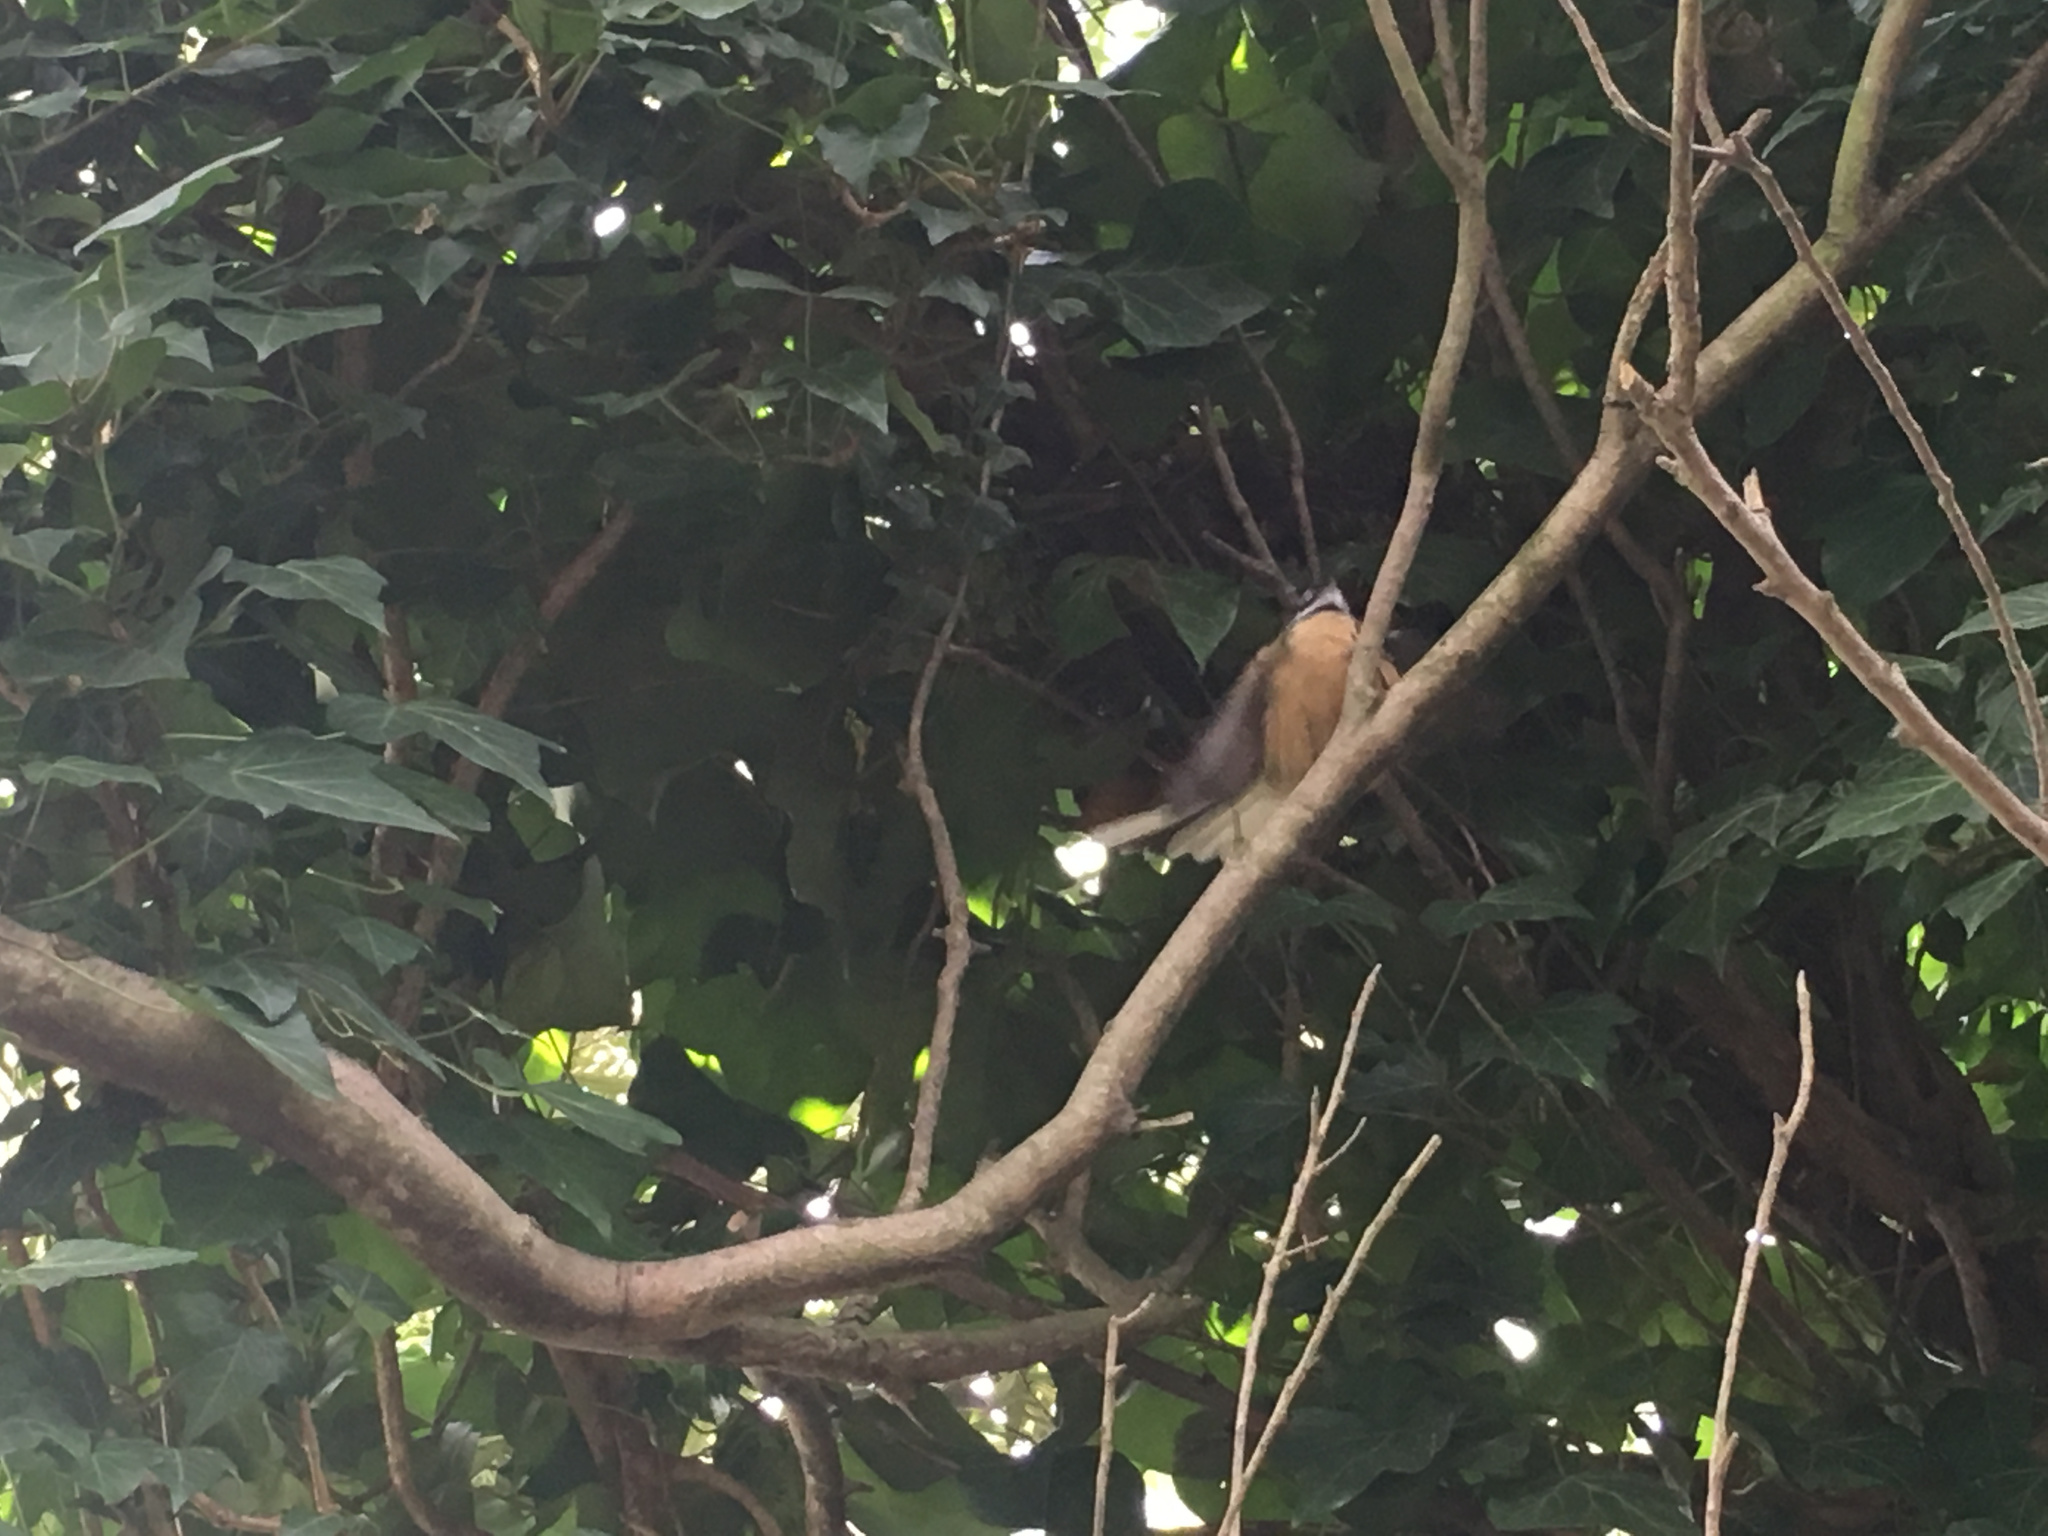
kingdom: Animalia
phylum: Chordata
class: Aves
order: Passeriformes
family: Rhipiduridae
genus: Rhipidura
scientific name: Rhipidura fuliginosa
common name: New zealand fantail
